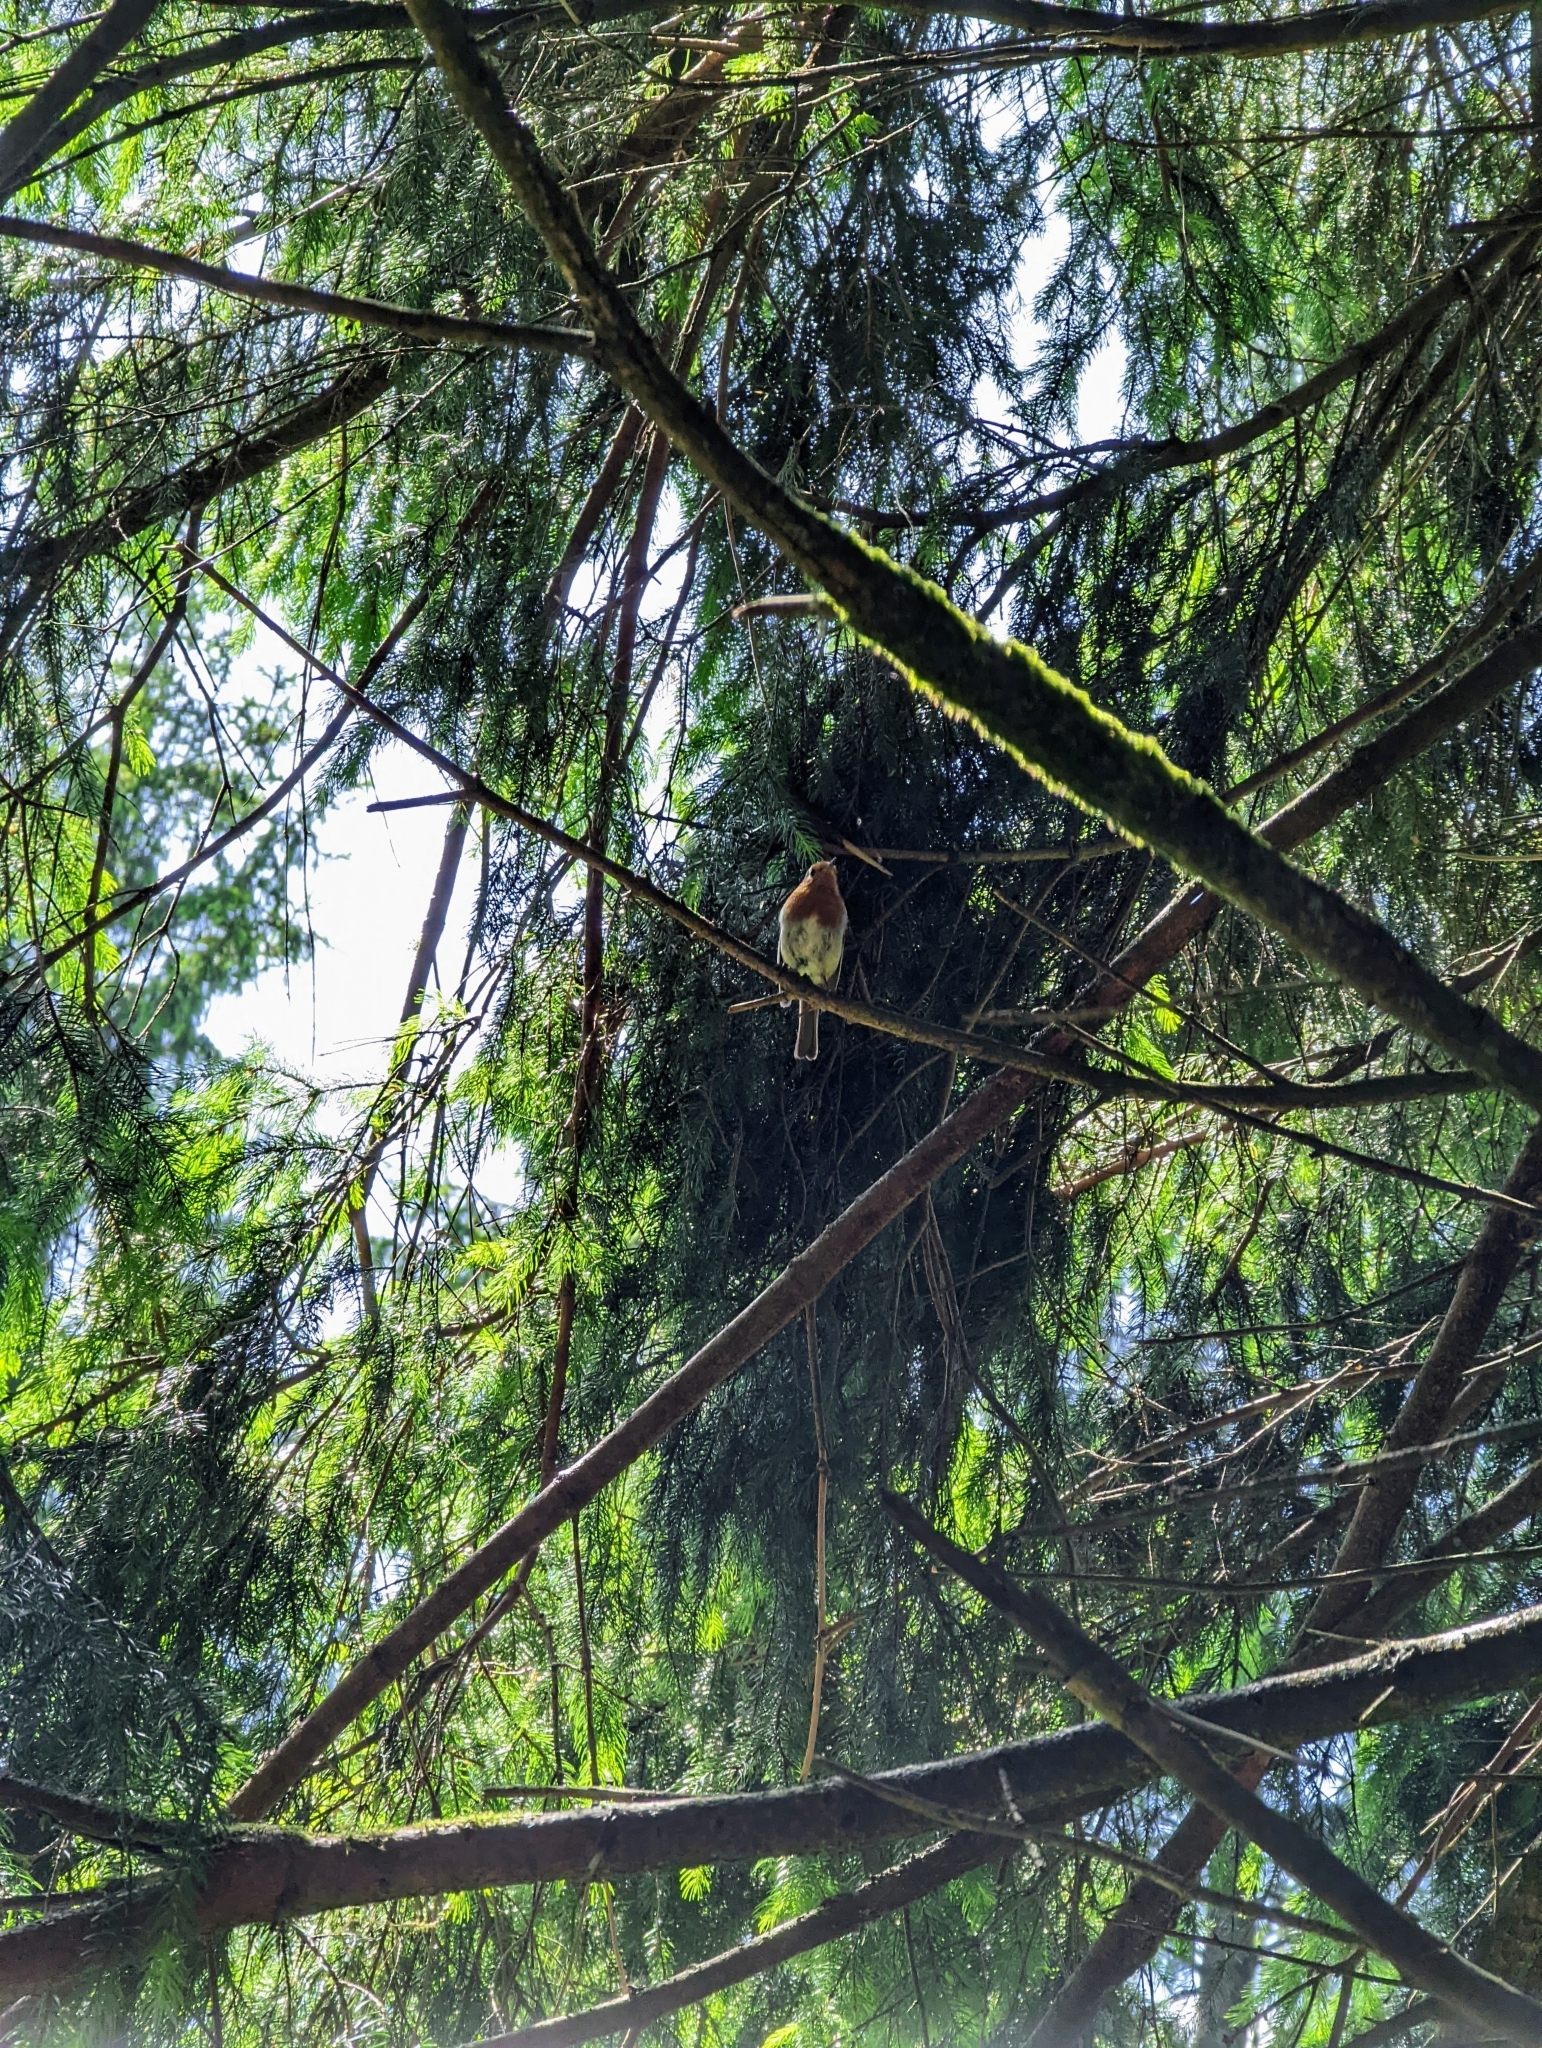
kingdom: Animalia
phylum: Chordata
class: Aves
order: Passeriformes
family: Muscicapidae
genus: Erithacus
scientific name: Erithacus rubecula
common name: European robin
